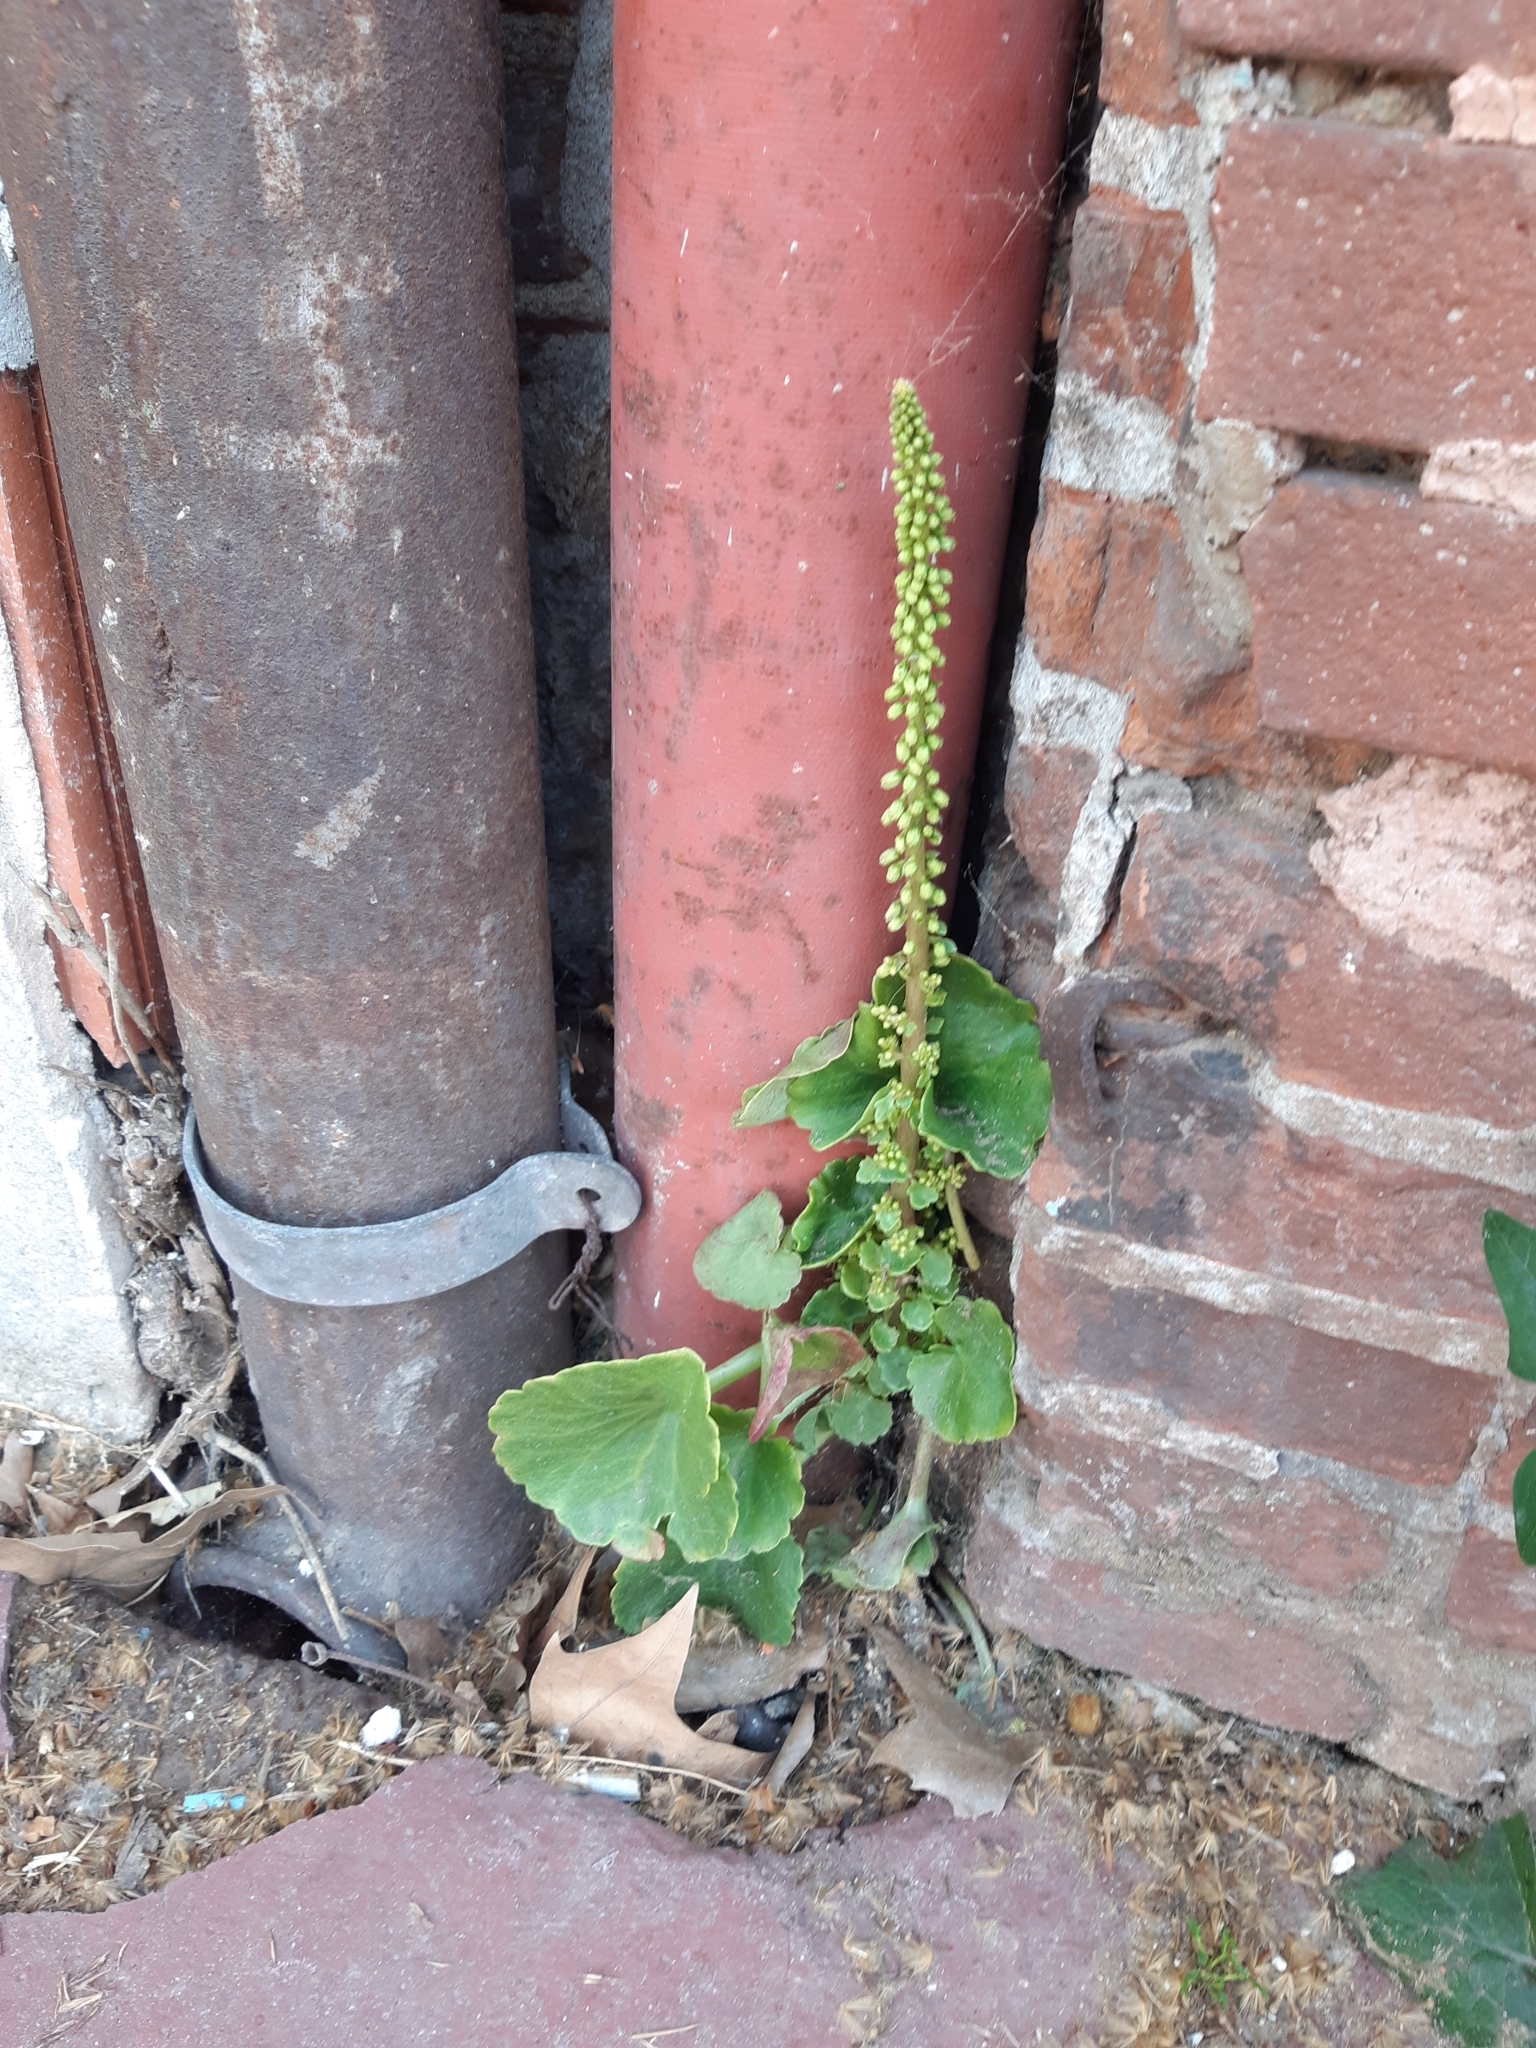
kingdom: Plantae
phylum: Tracheophyta
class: Magnoliopsida
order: Saxifragales
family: Crassulaceae
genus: Umbilicus
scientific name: Umbilicus rupestris
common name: Navelwort
